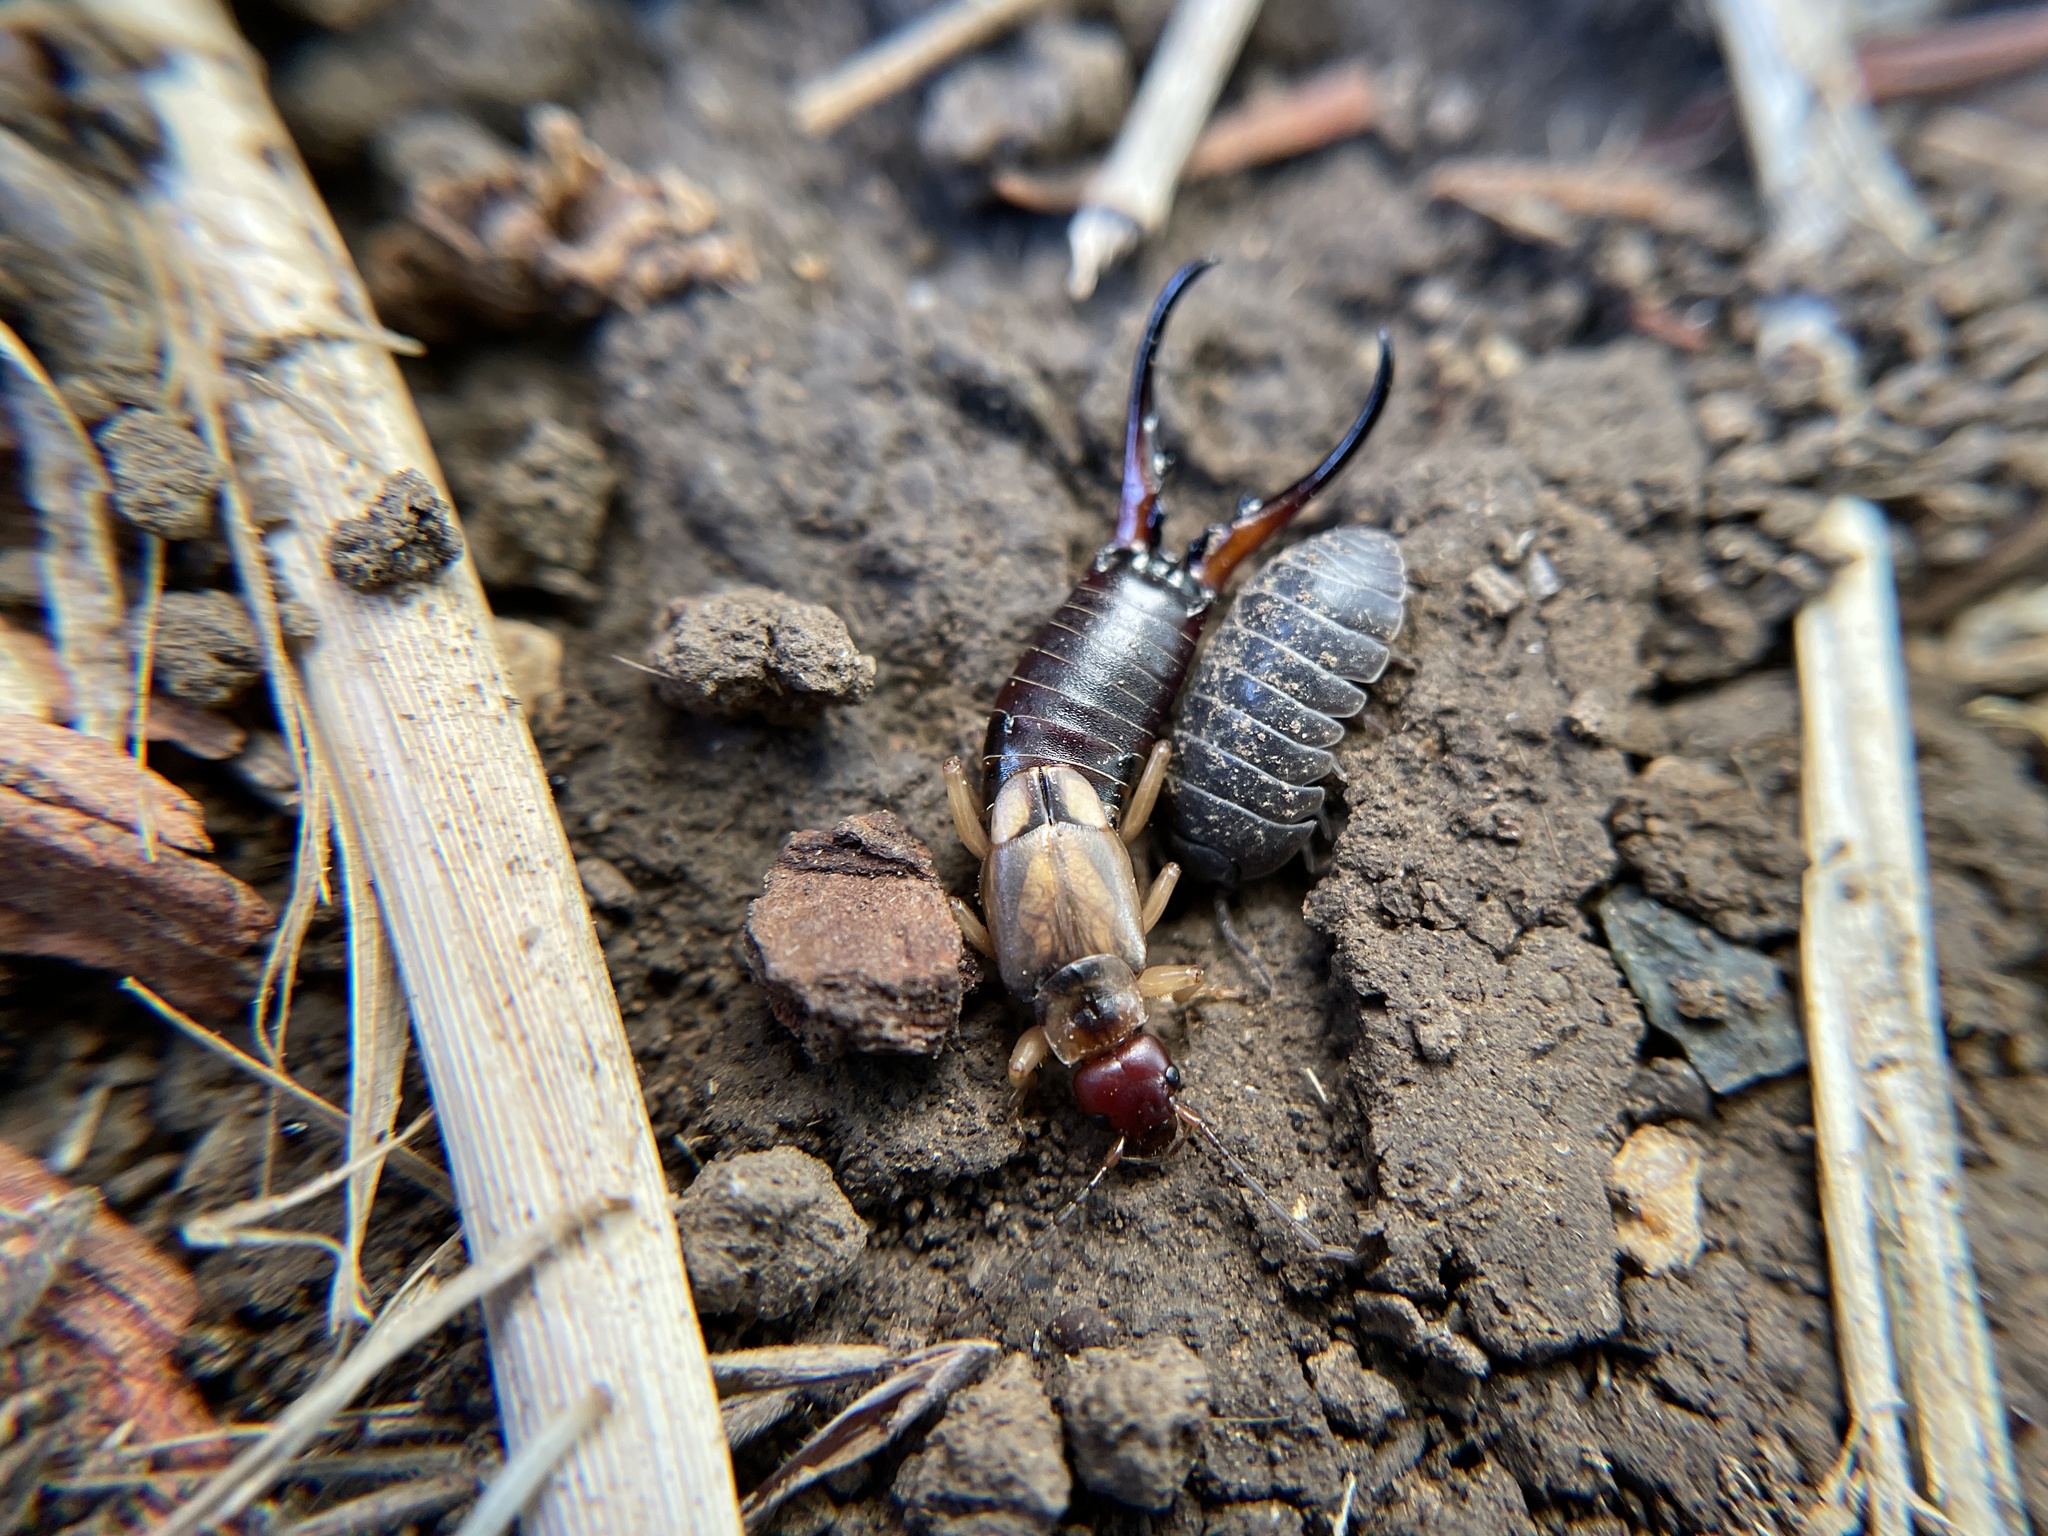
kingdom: Animalia
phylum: Arthropoda
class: Insecta
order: Dermaptera
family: Forficulidae
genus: Forficula
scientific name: Forficula
